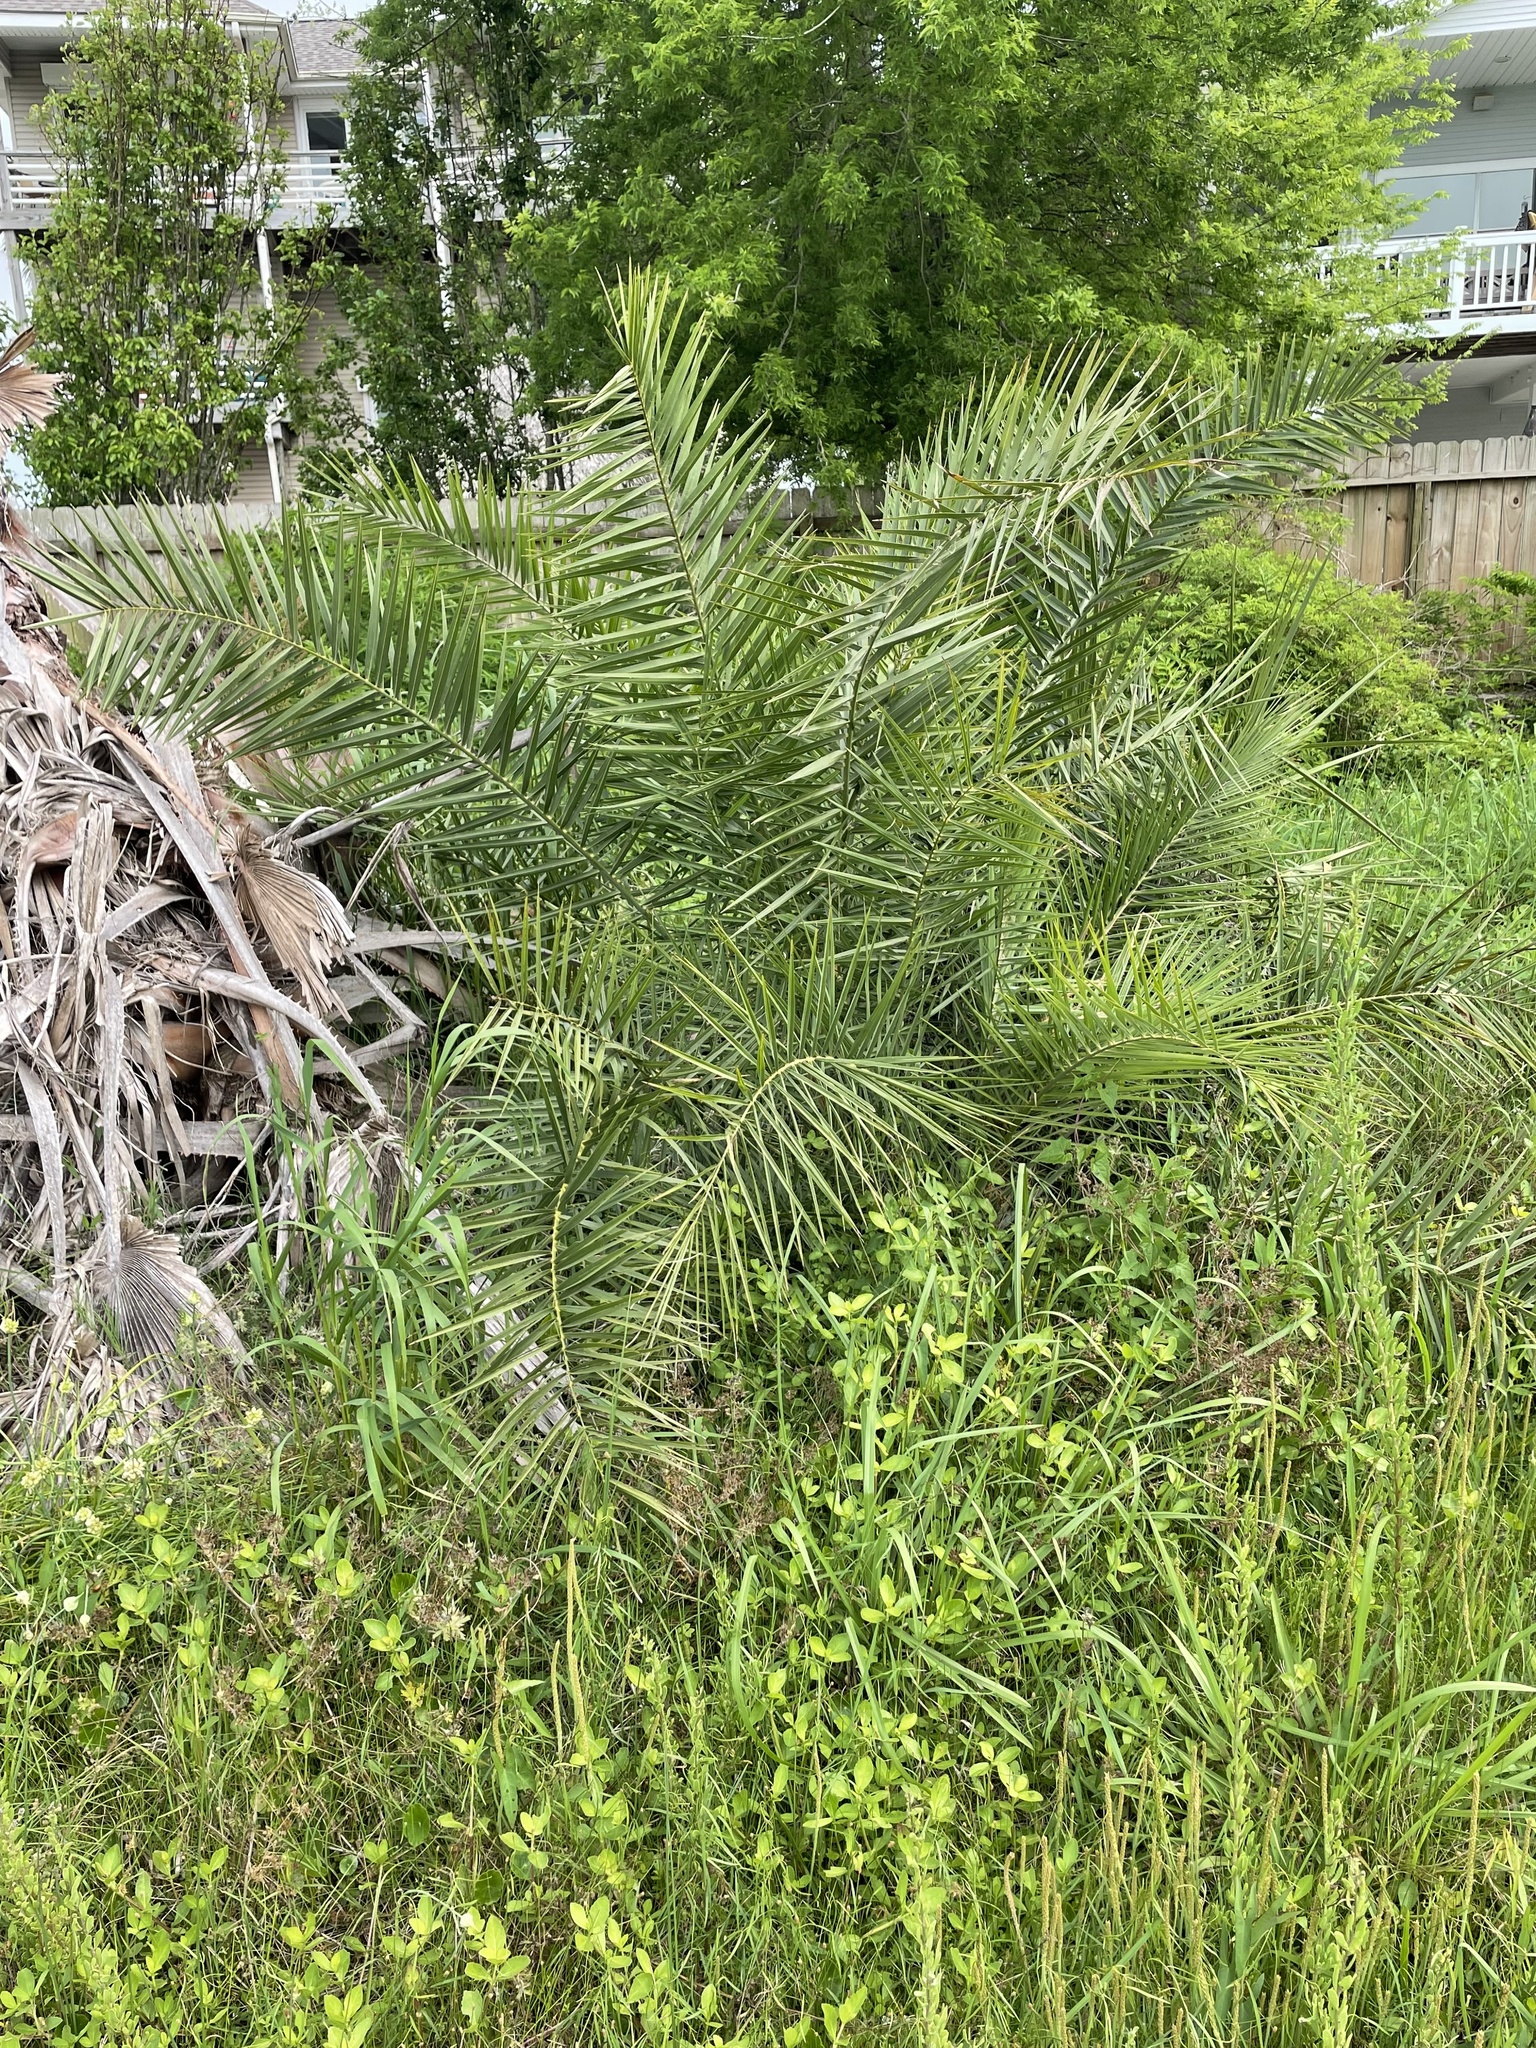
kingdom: Plantae
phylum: Tracheophyta
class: Liliopsida
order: Arecales
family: Arecaceae
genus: Phoenix
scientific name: Phoenix canariensis
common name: Canary island date palm
